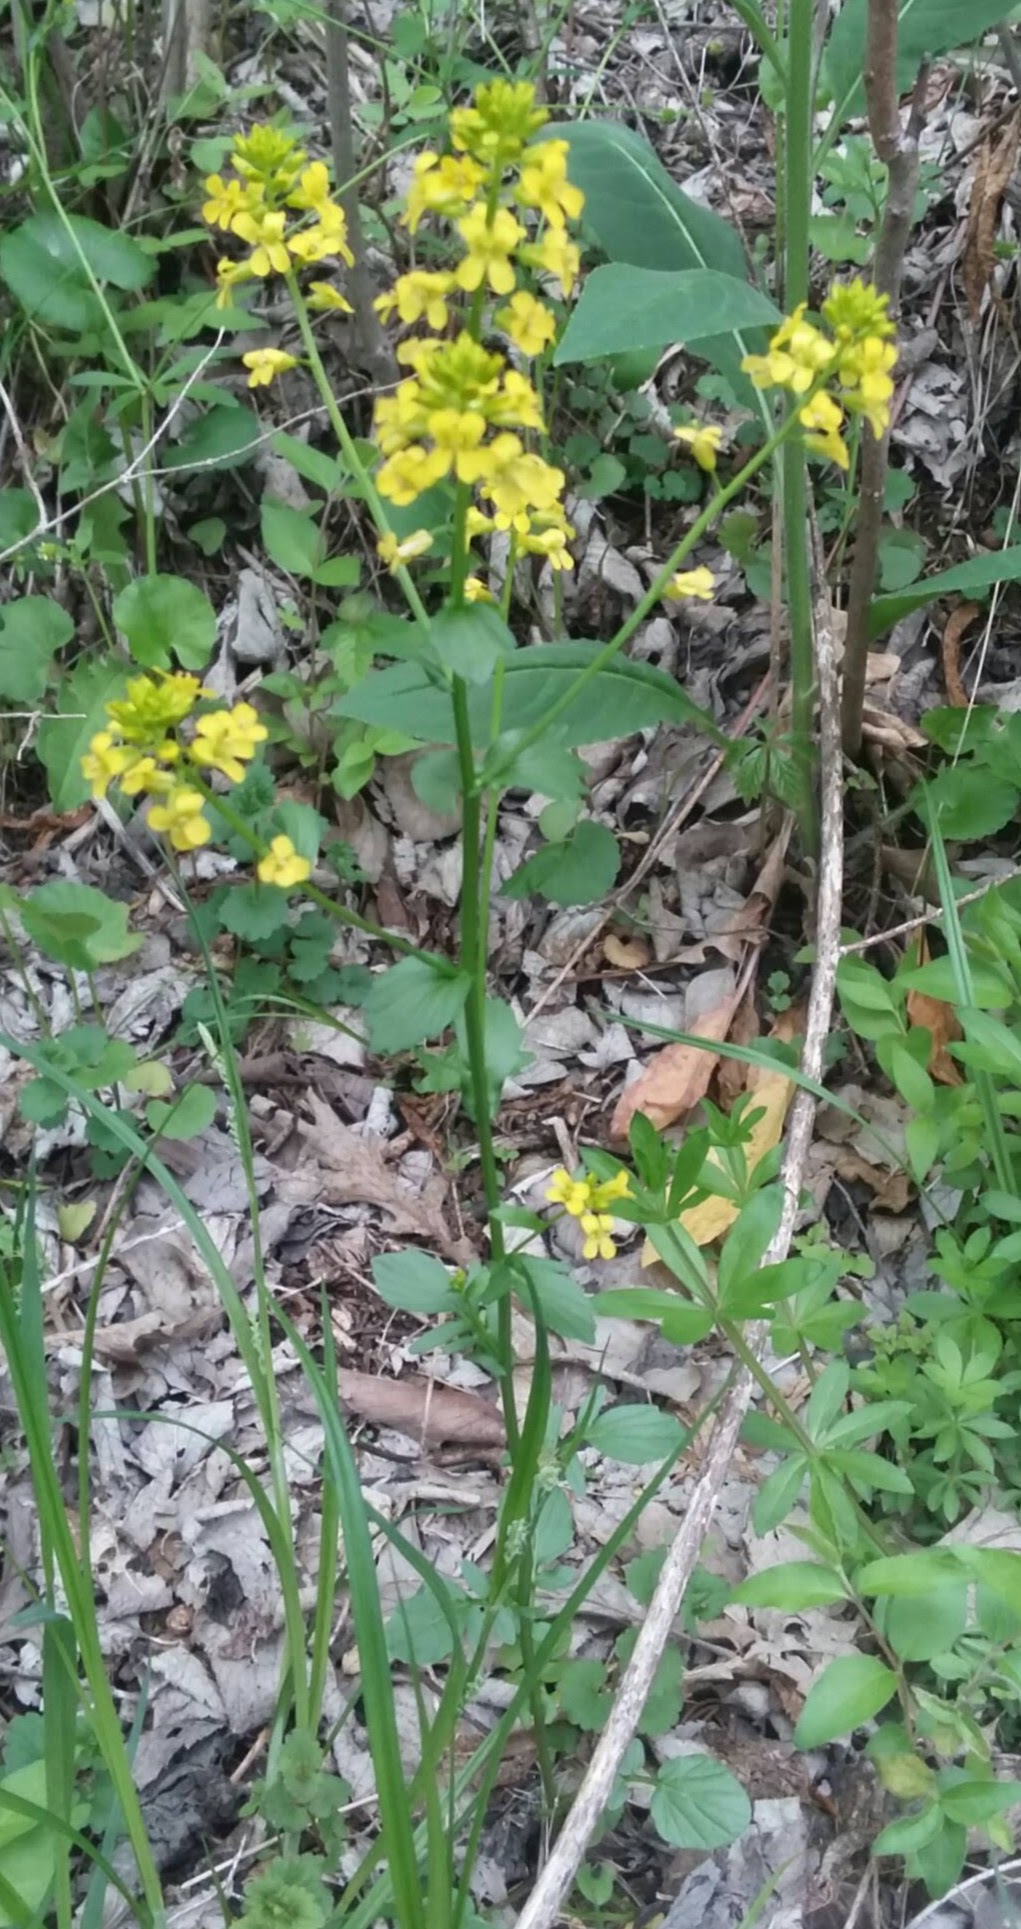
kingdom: Plantae
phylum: Tracheophyta
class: Magnoliopsida
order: Brassicales
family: Brassicaceae
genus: Barbarea
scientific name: Barbarea vulgaris
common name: Cressy-greens
